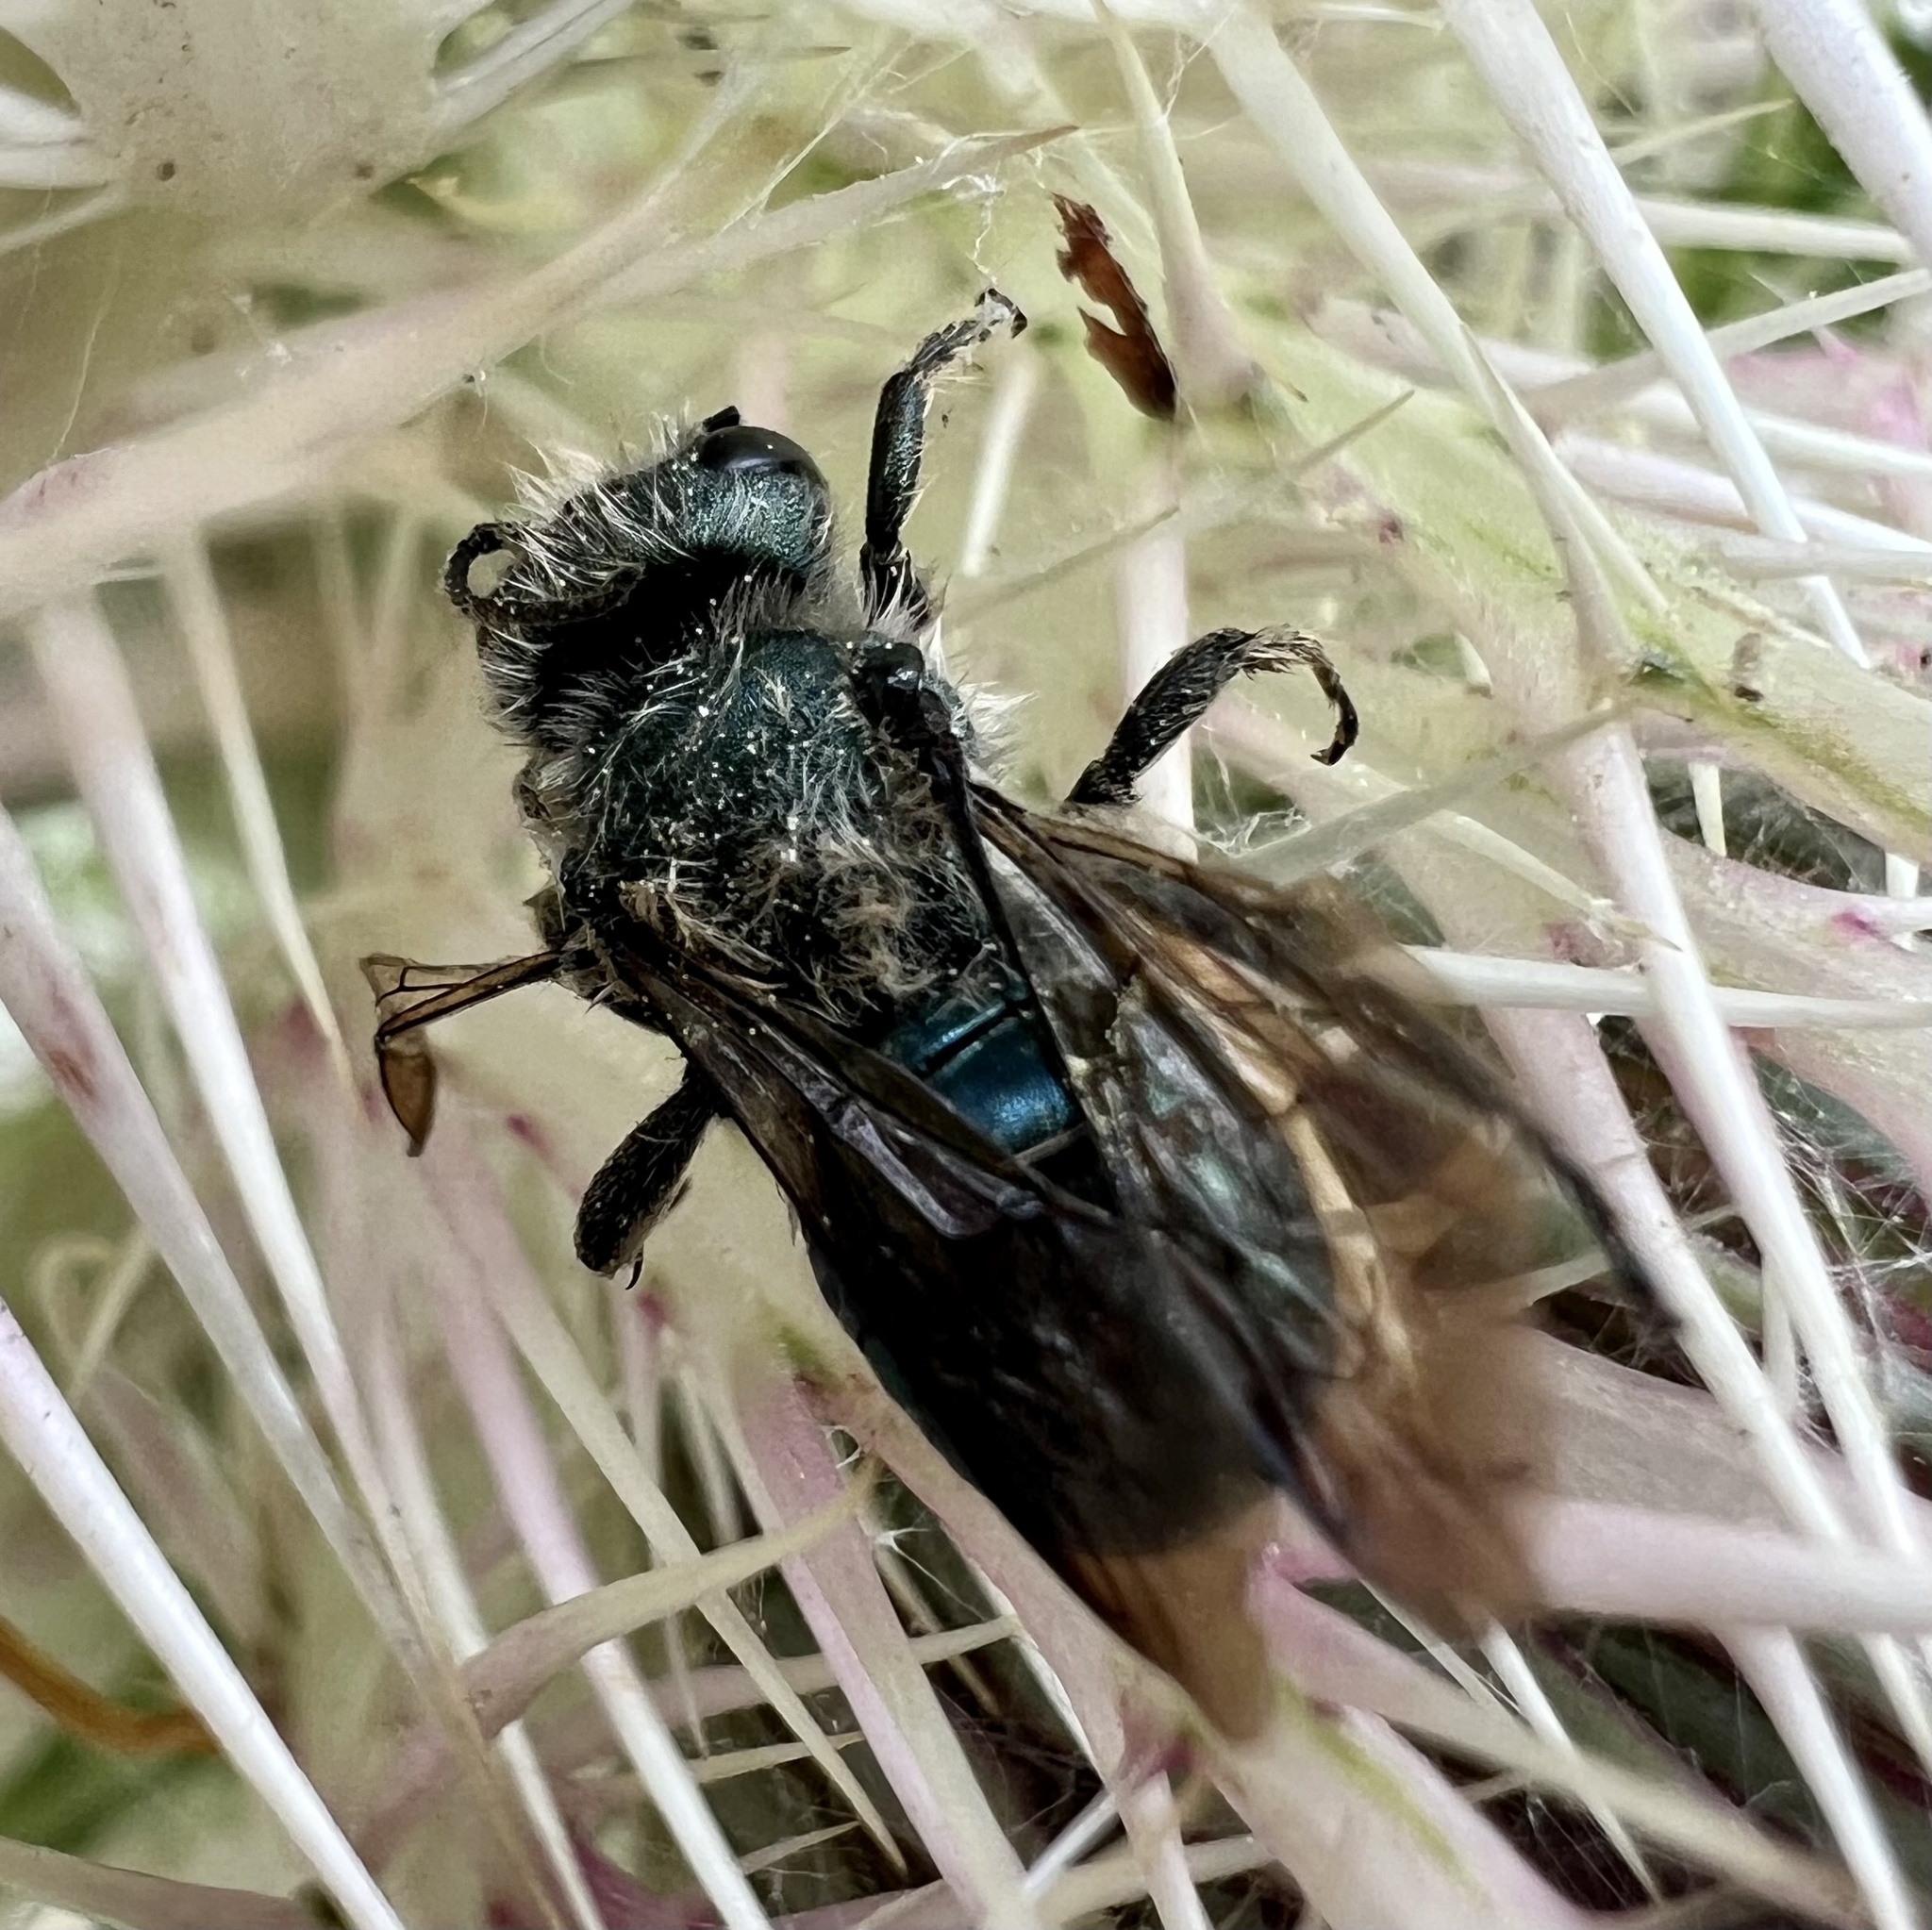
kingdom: Animalia
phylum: Arthropoda
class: Insecta
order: Hymenoptera
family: Megachilidae
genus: Osmia
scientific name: Osmia chalybea
